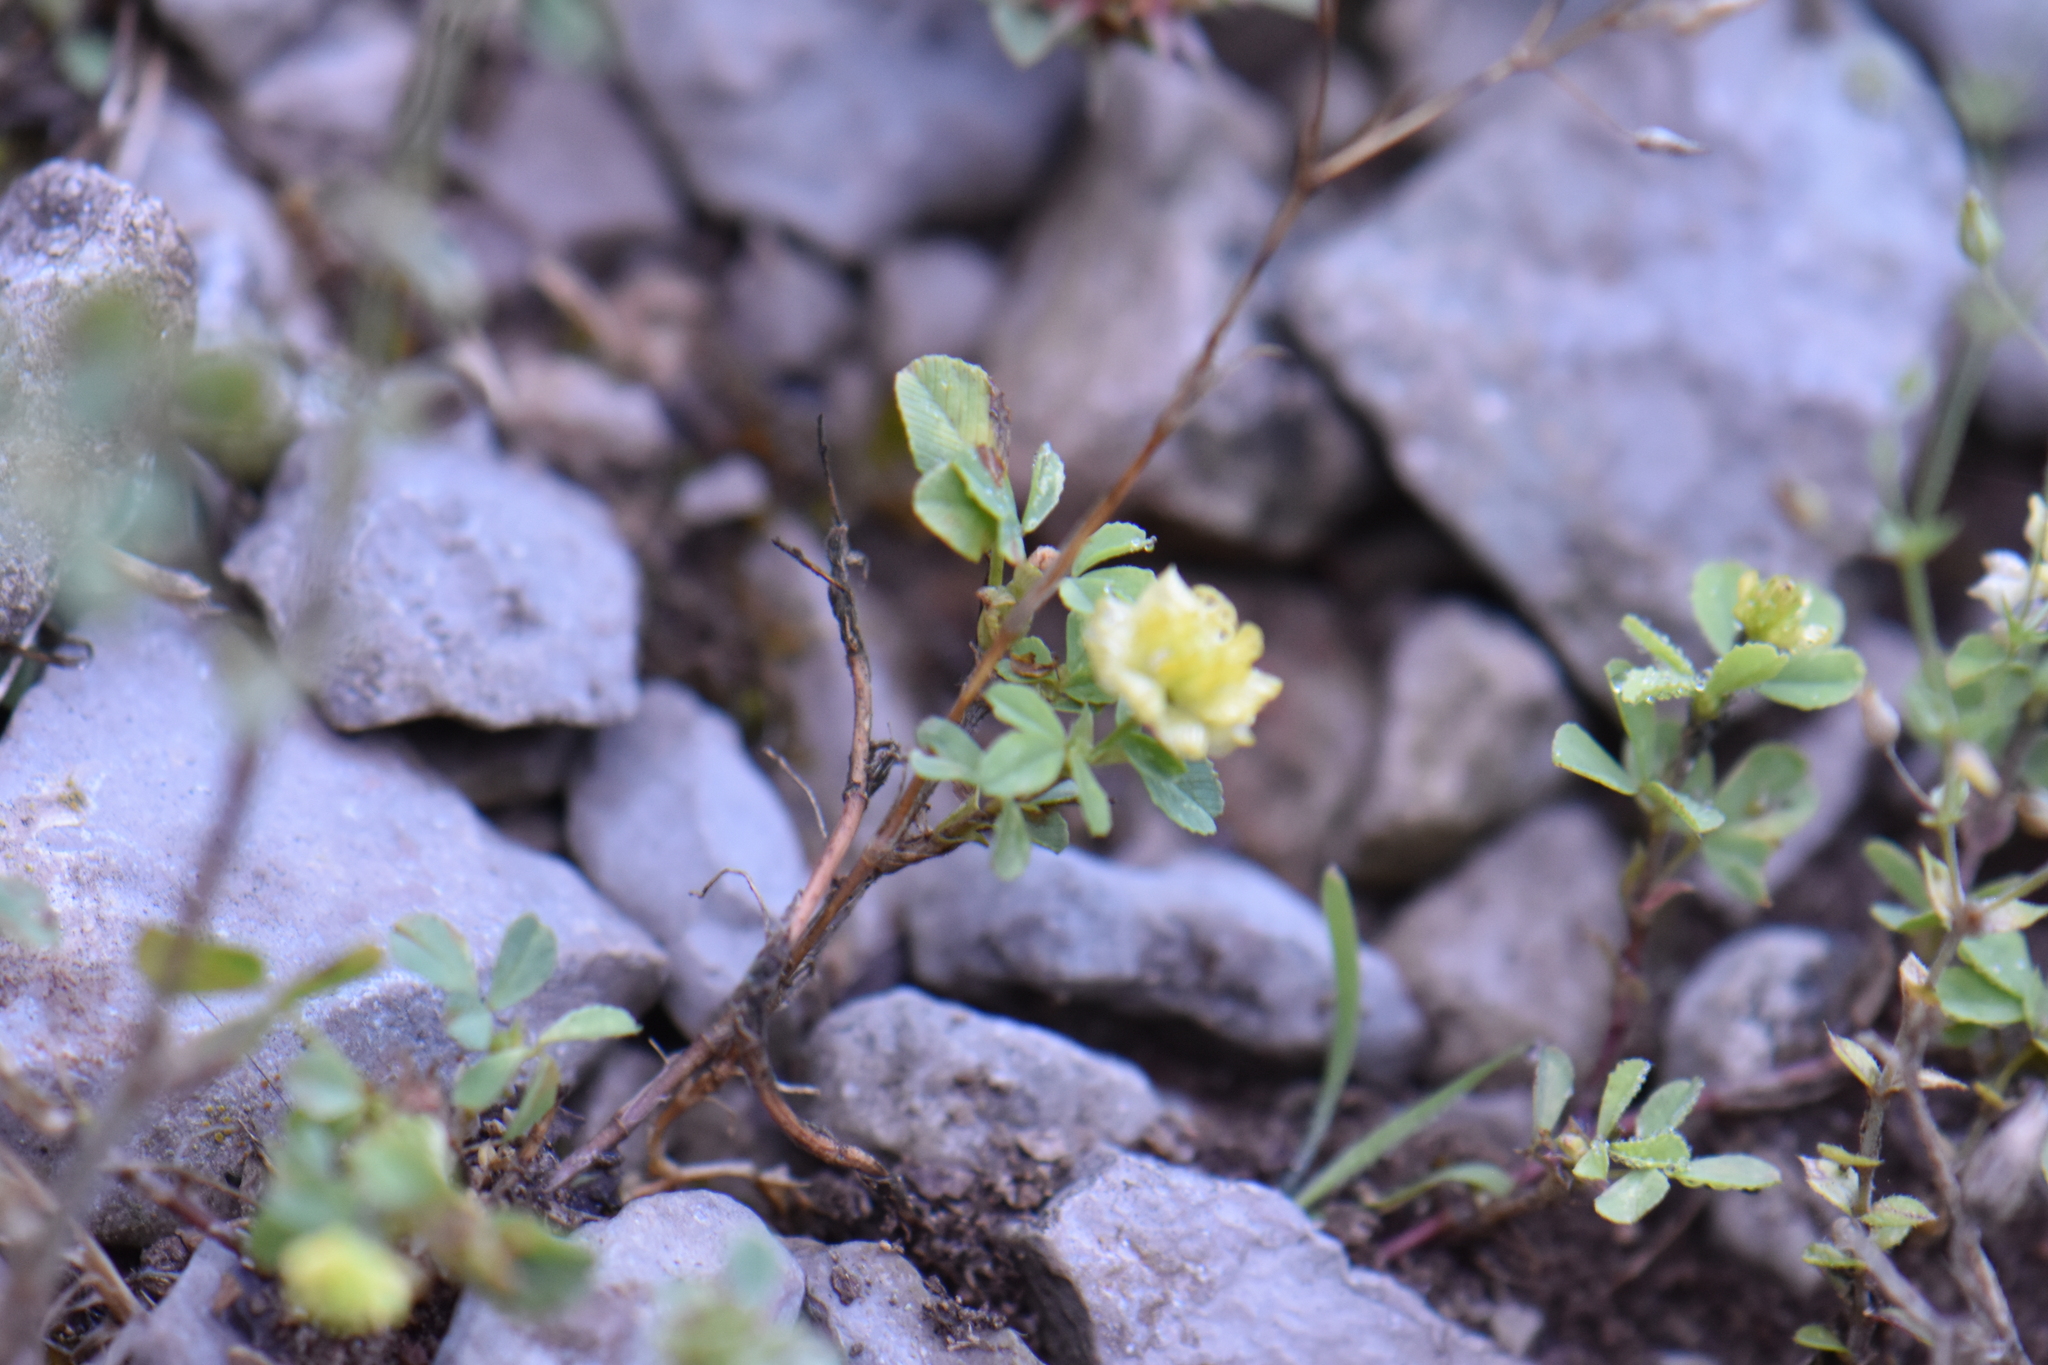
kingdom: Plantae
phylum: Tracheophyta
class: Magnoliopsida
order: Fabales
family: Fabaceae
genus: Trifolium
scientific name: Trifolium campestre
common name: Field clover
